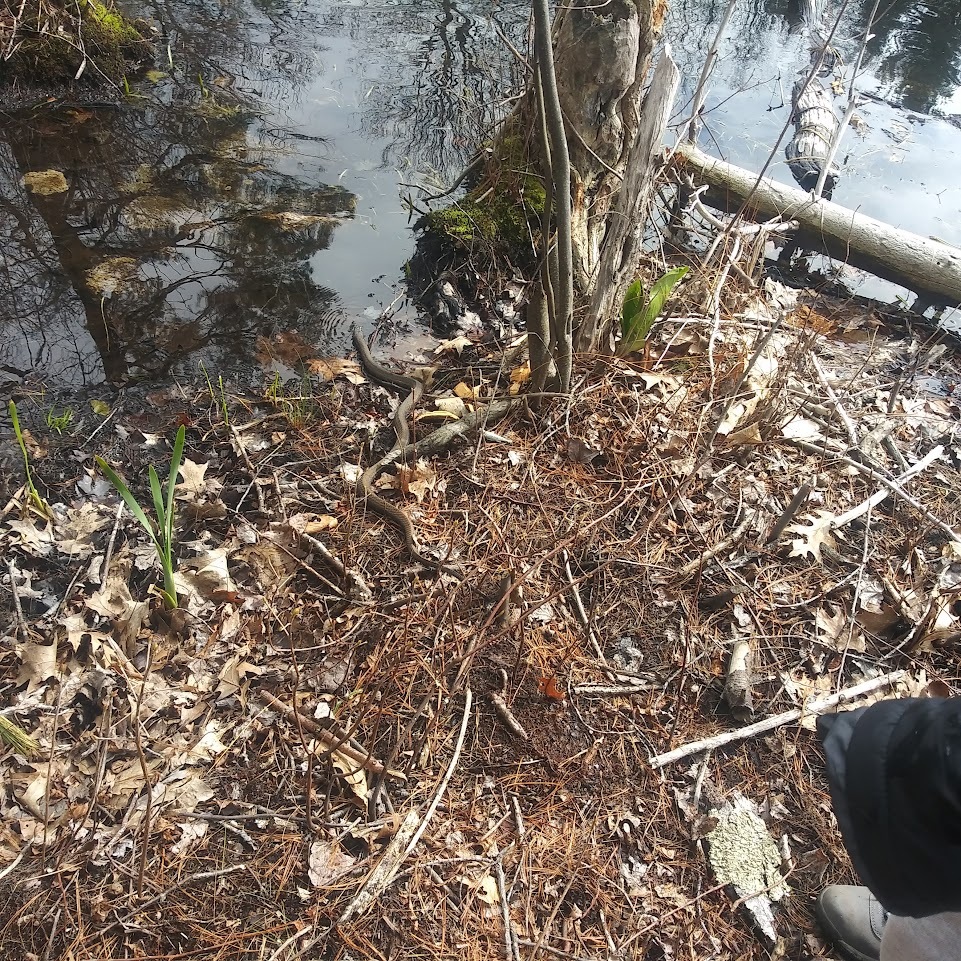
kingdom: Animalia
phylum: Chordata
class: Squamata
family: Colubridae
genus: Nerodia
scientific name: Nerodia sipedon
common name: Northern water snake
